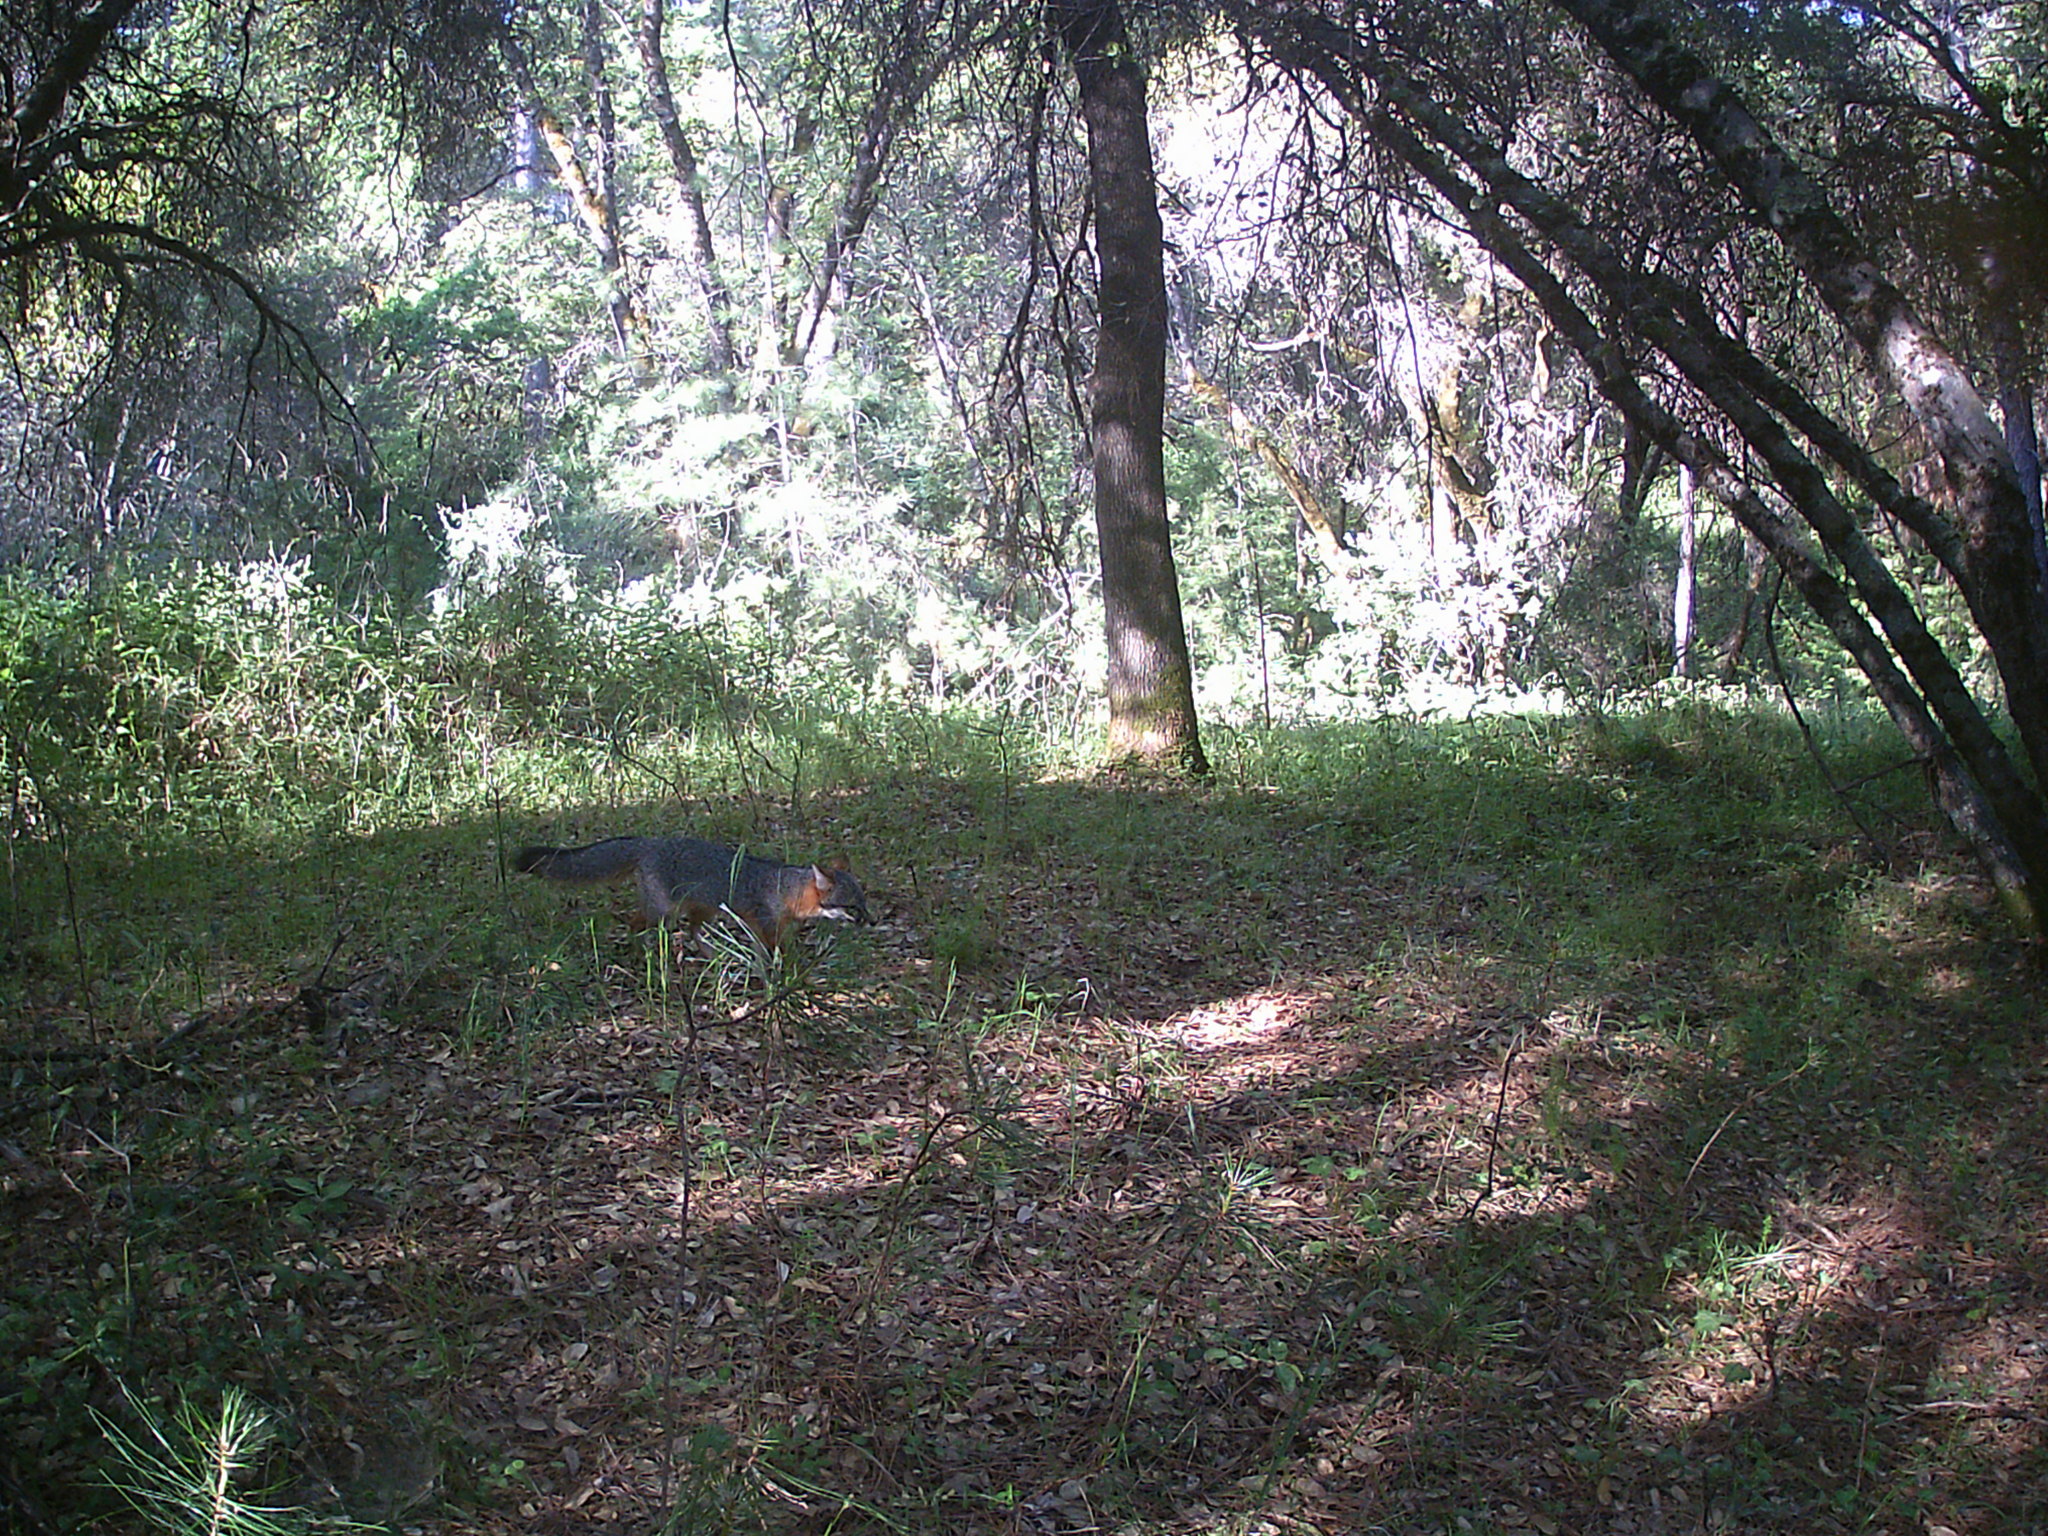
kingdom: Animalia
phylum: Chordata
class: Mammalia
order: Carnivora
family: Canidae
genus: Urocyon
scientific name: Urocyon cinereoargenteus
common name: Gray fox
